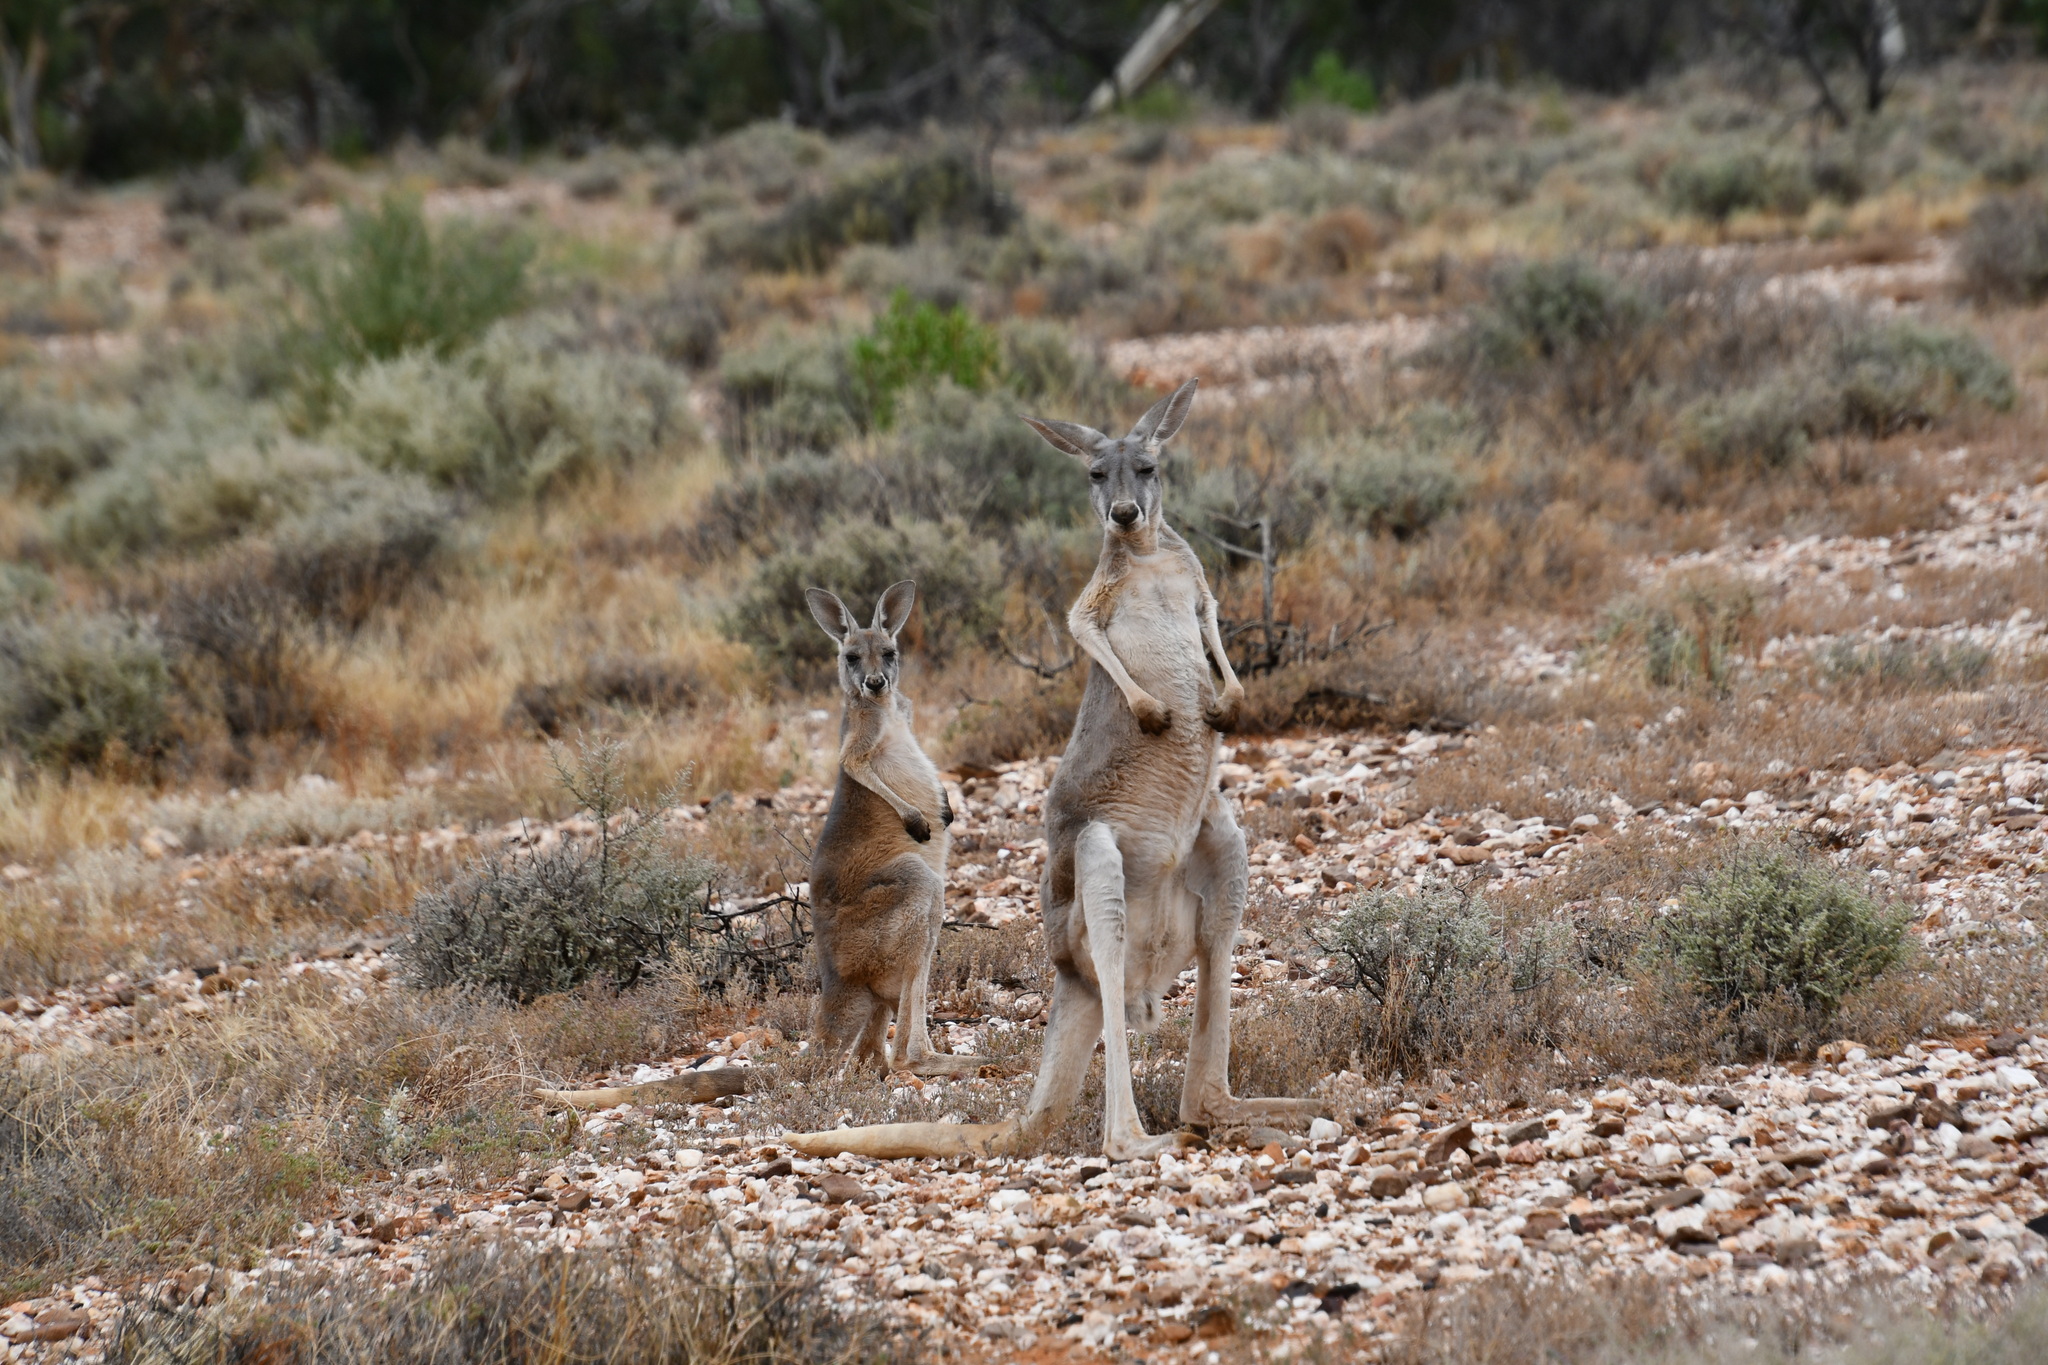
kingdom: Animalia
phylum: Chordata
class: Mammalia
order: Diprotodontia
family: Macropodidae
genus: Macropus
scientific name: Macropus rufus
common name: Red kangaroo
